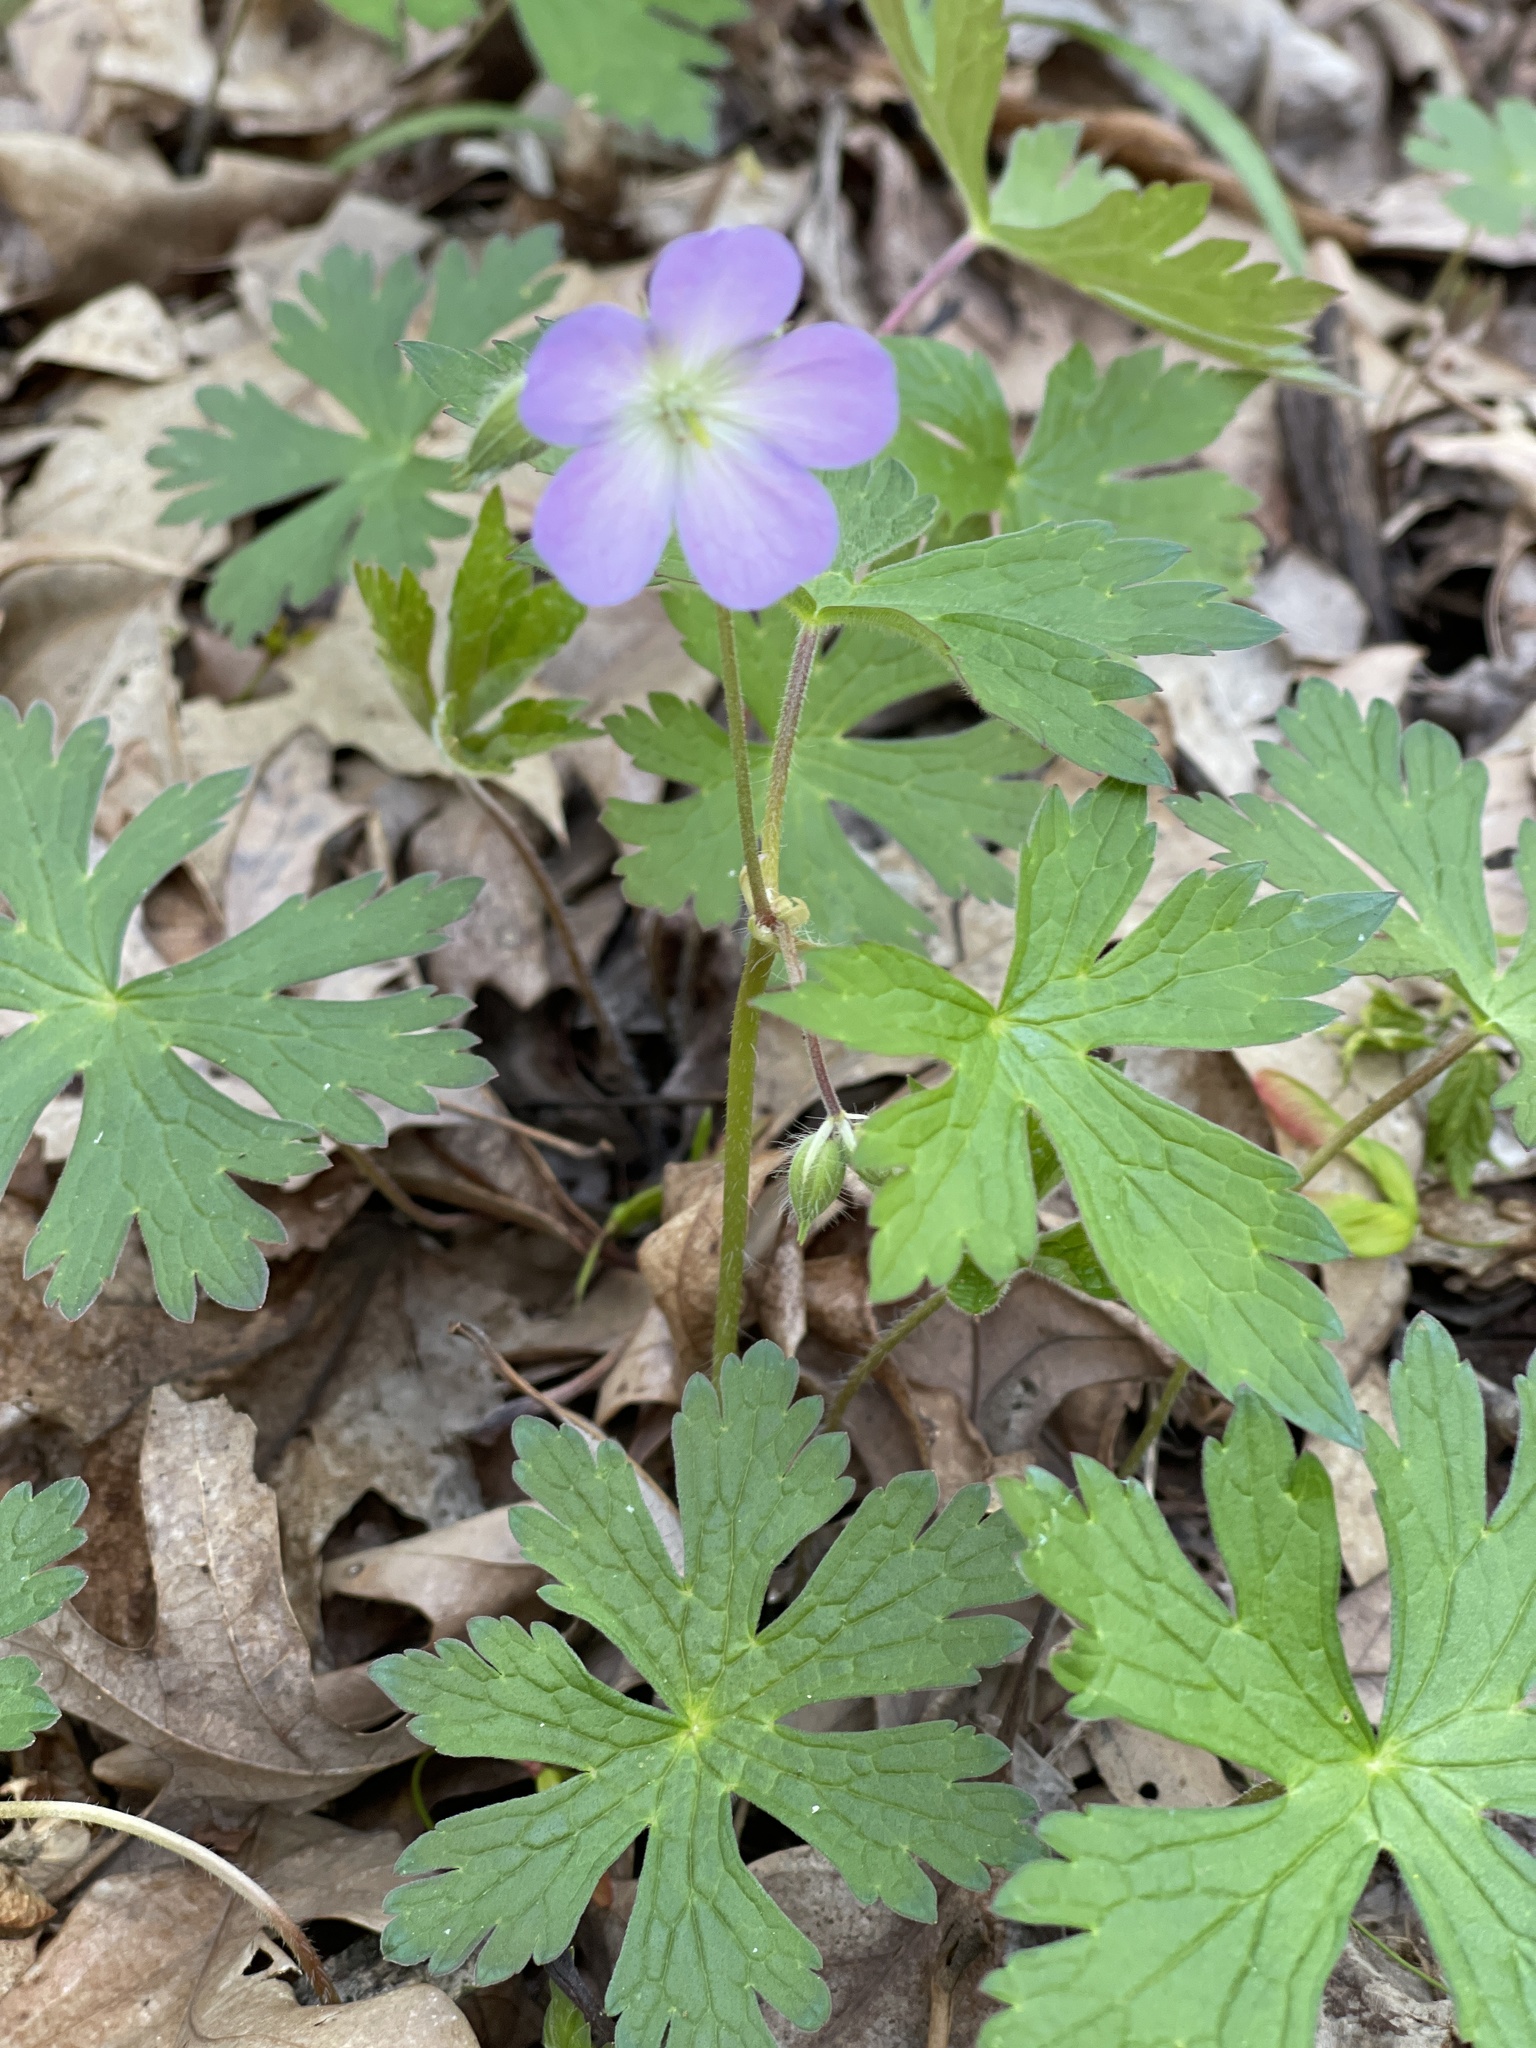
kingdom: Plantae
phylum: Tracheophyta
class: Magnoliopsida
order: Geraniales
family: Geraniaceae
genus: Geranium
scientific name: Geranium maculatum
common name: Spotted geranium
